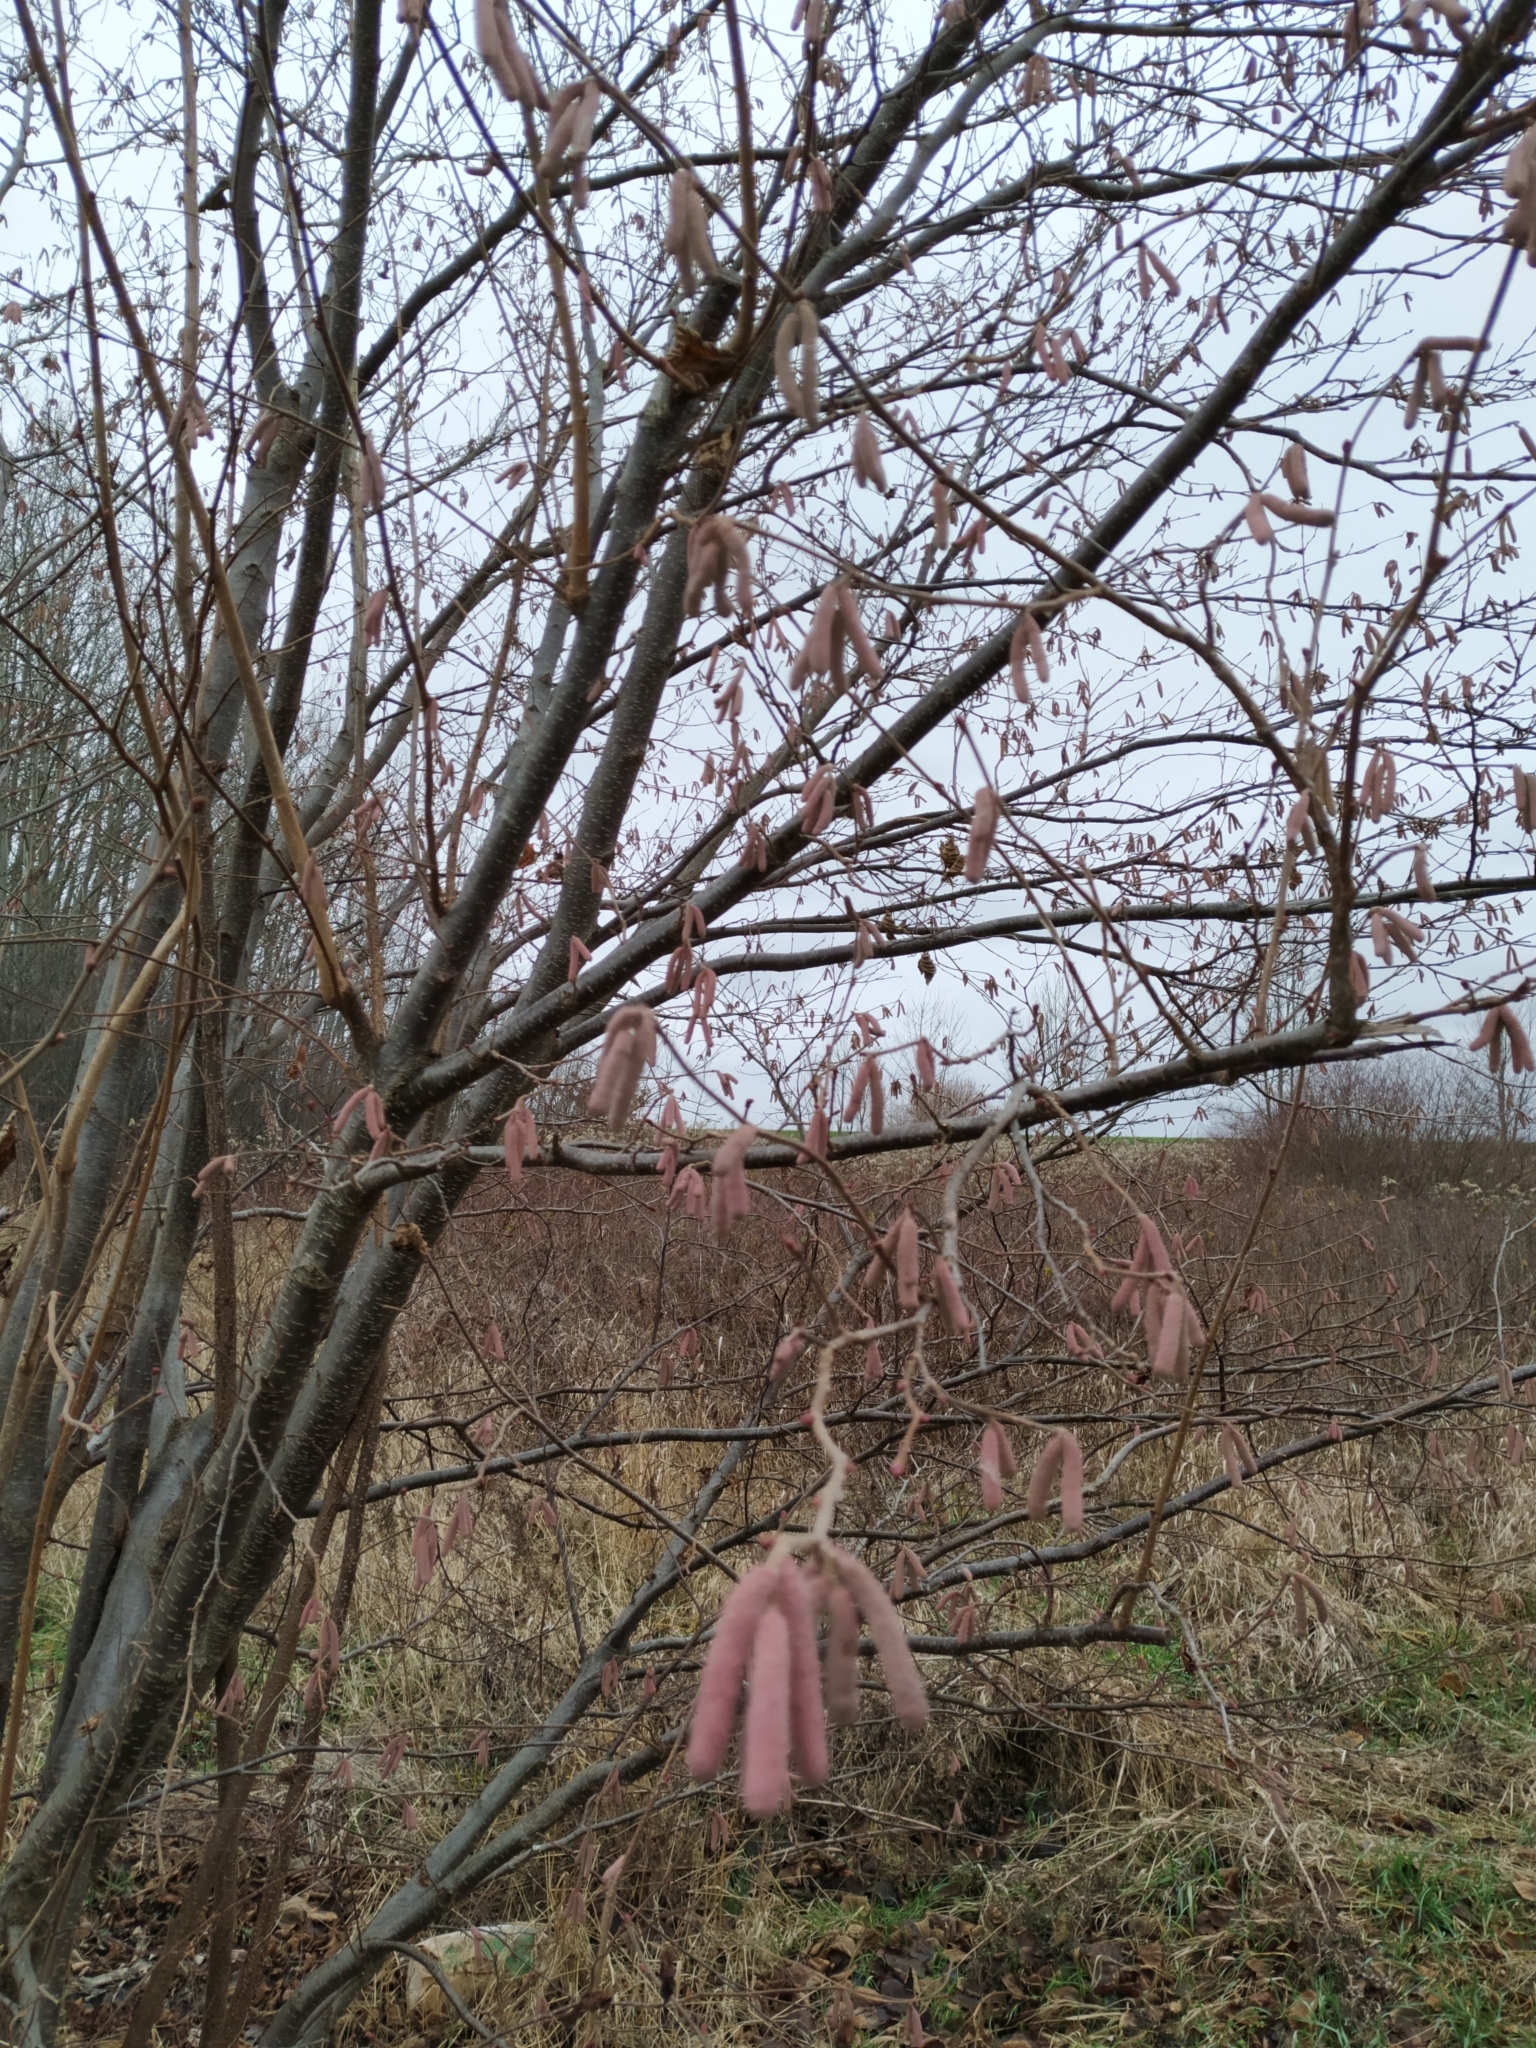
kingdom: Plantae
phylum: Tracheophyta
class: Magnoliopsida
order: Fagales
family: Betulaceae
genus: Corylus
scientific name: Corylus avellana
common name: European hazel
